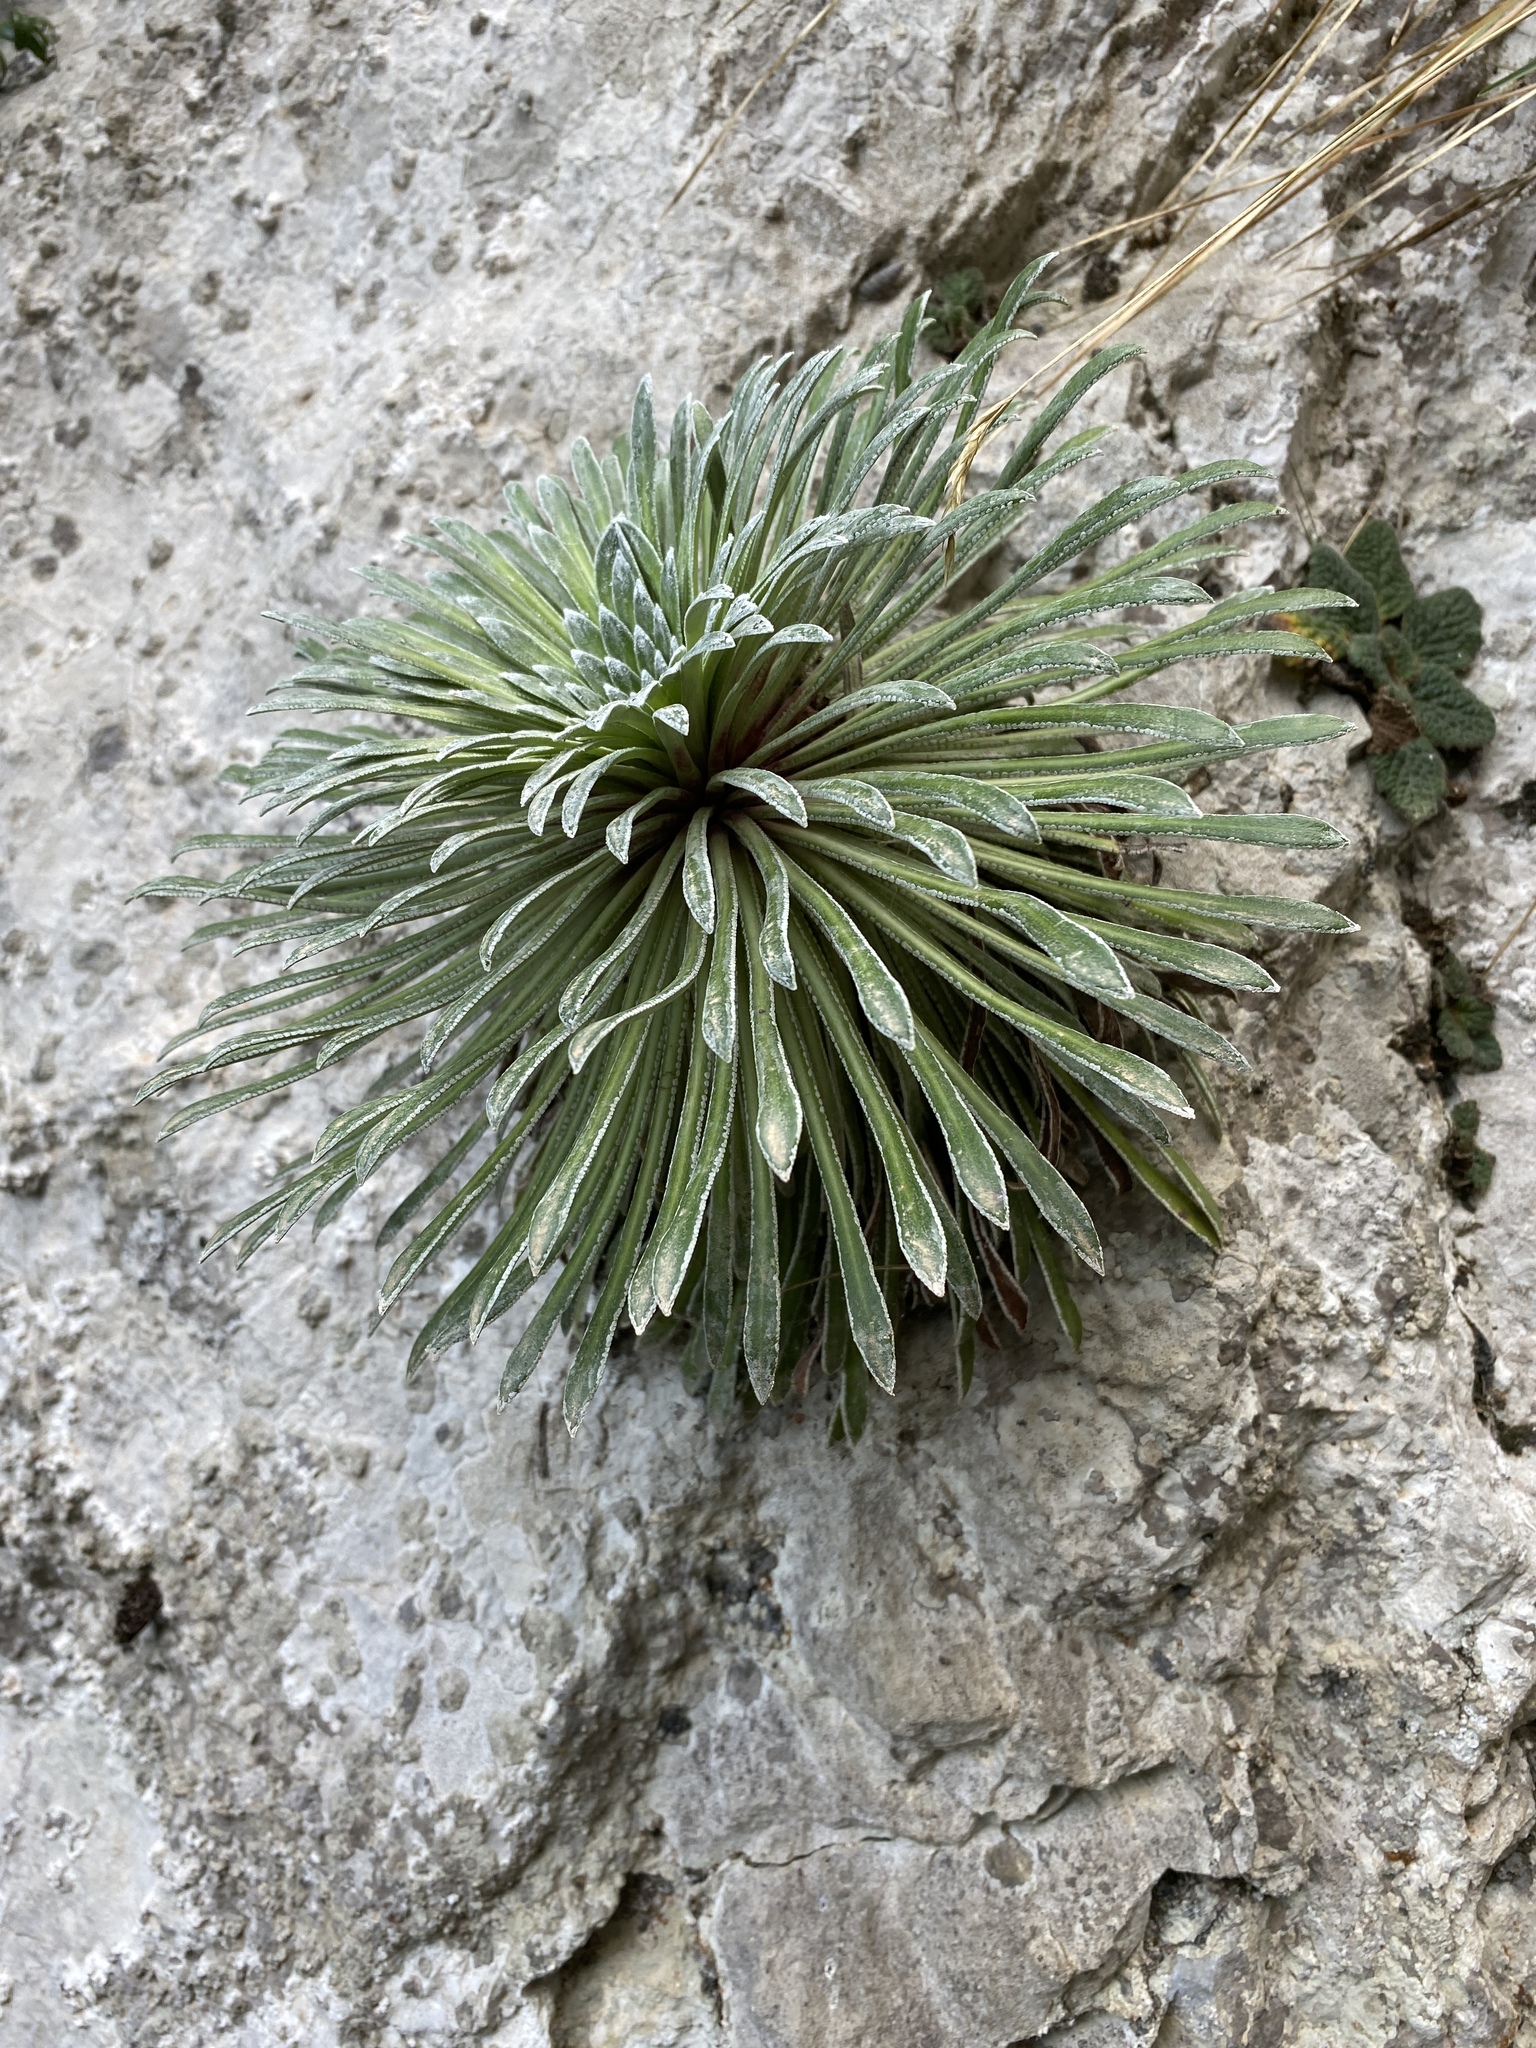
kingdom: Plantae
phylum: Tracheophyta
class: Magnoliopsida
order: Saxifragales
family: Saxifragaceae
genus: Saxifraga
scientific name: Saxifraga longifolia
